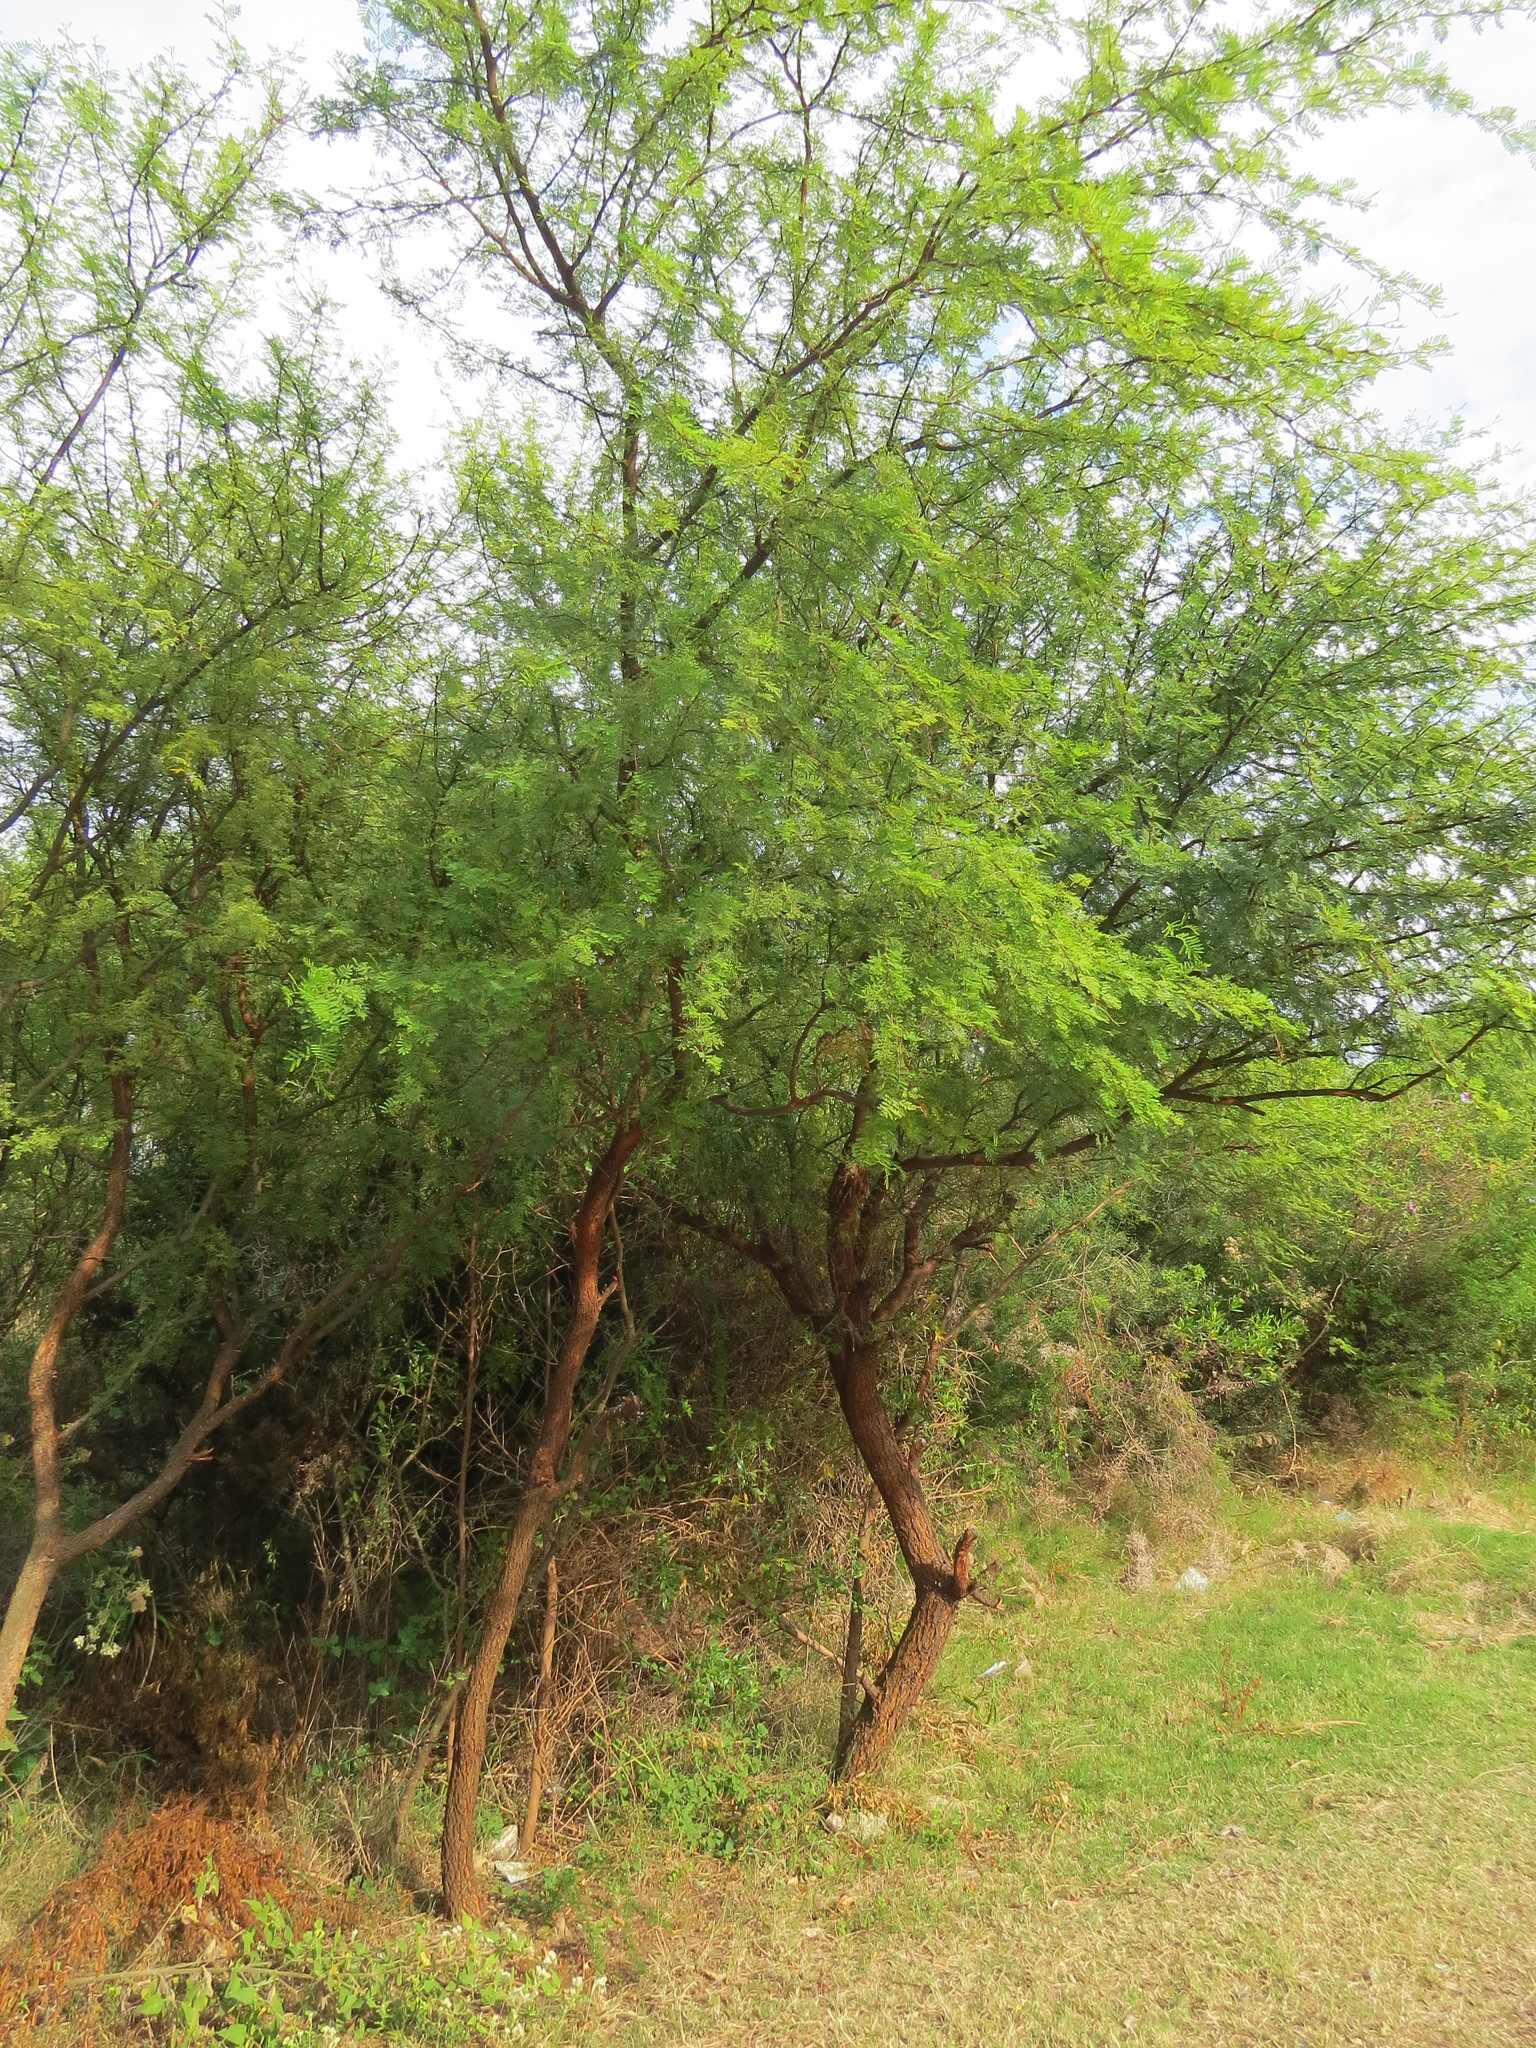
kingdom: Plantae
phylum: Tracheophyta
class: Magnoliopsida
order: Fabales
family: Fabaceae
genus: Vachellia
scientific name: Vachellia caven
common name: Roman cassie
